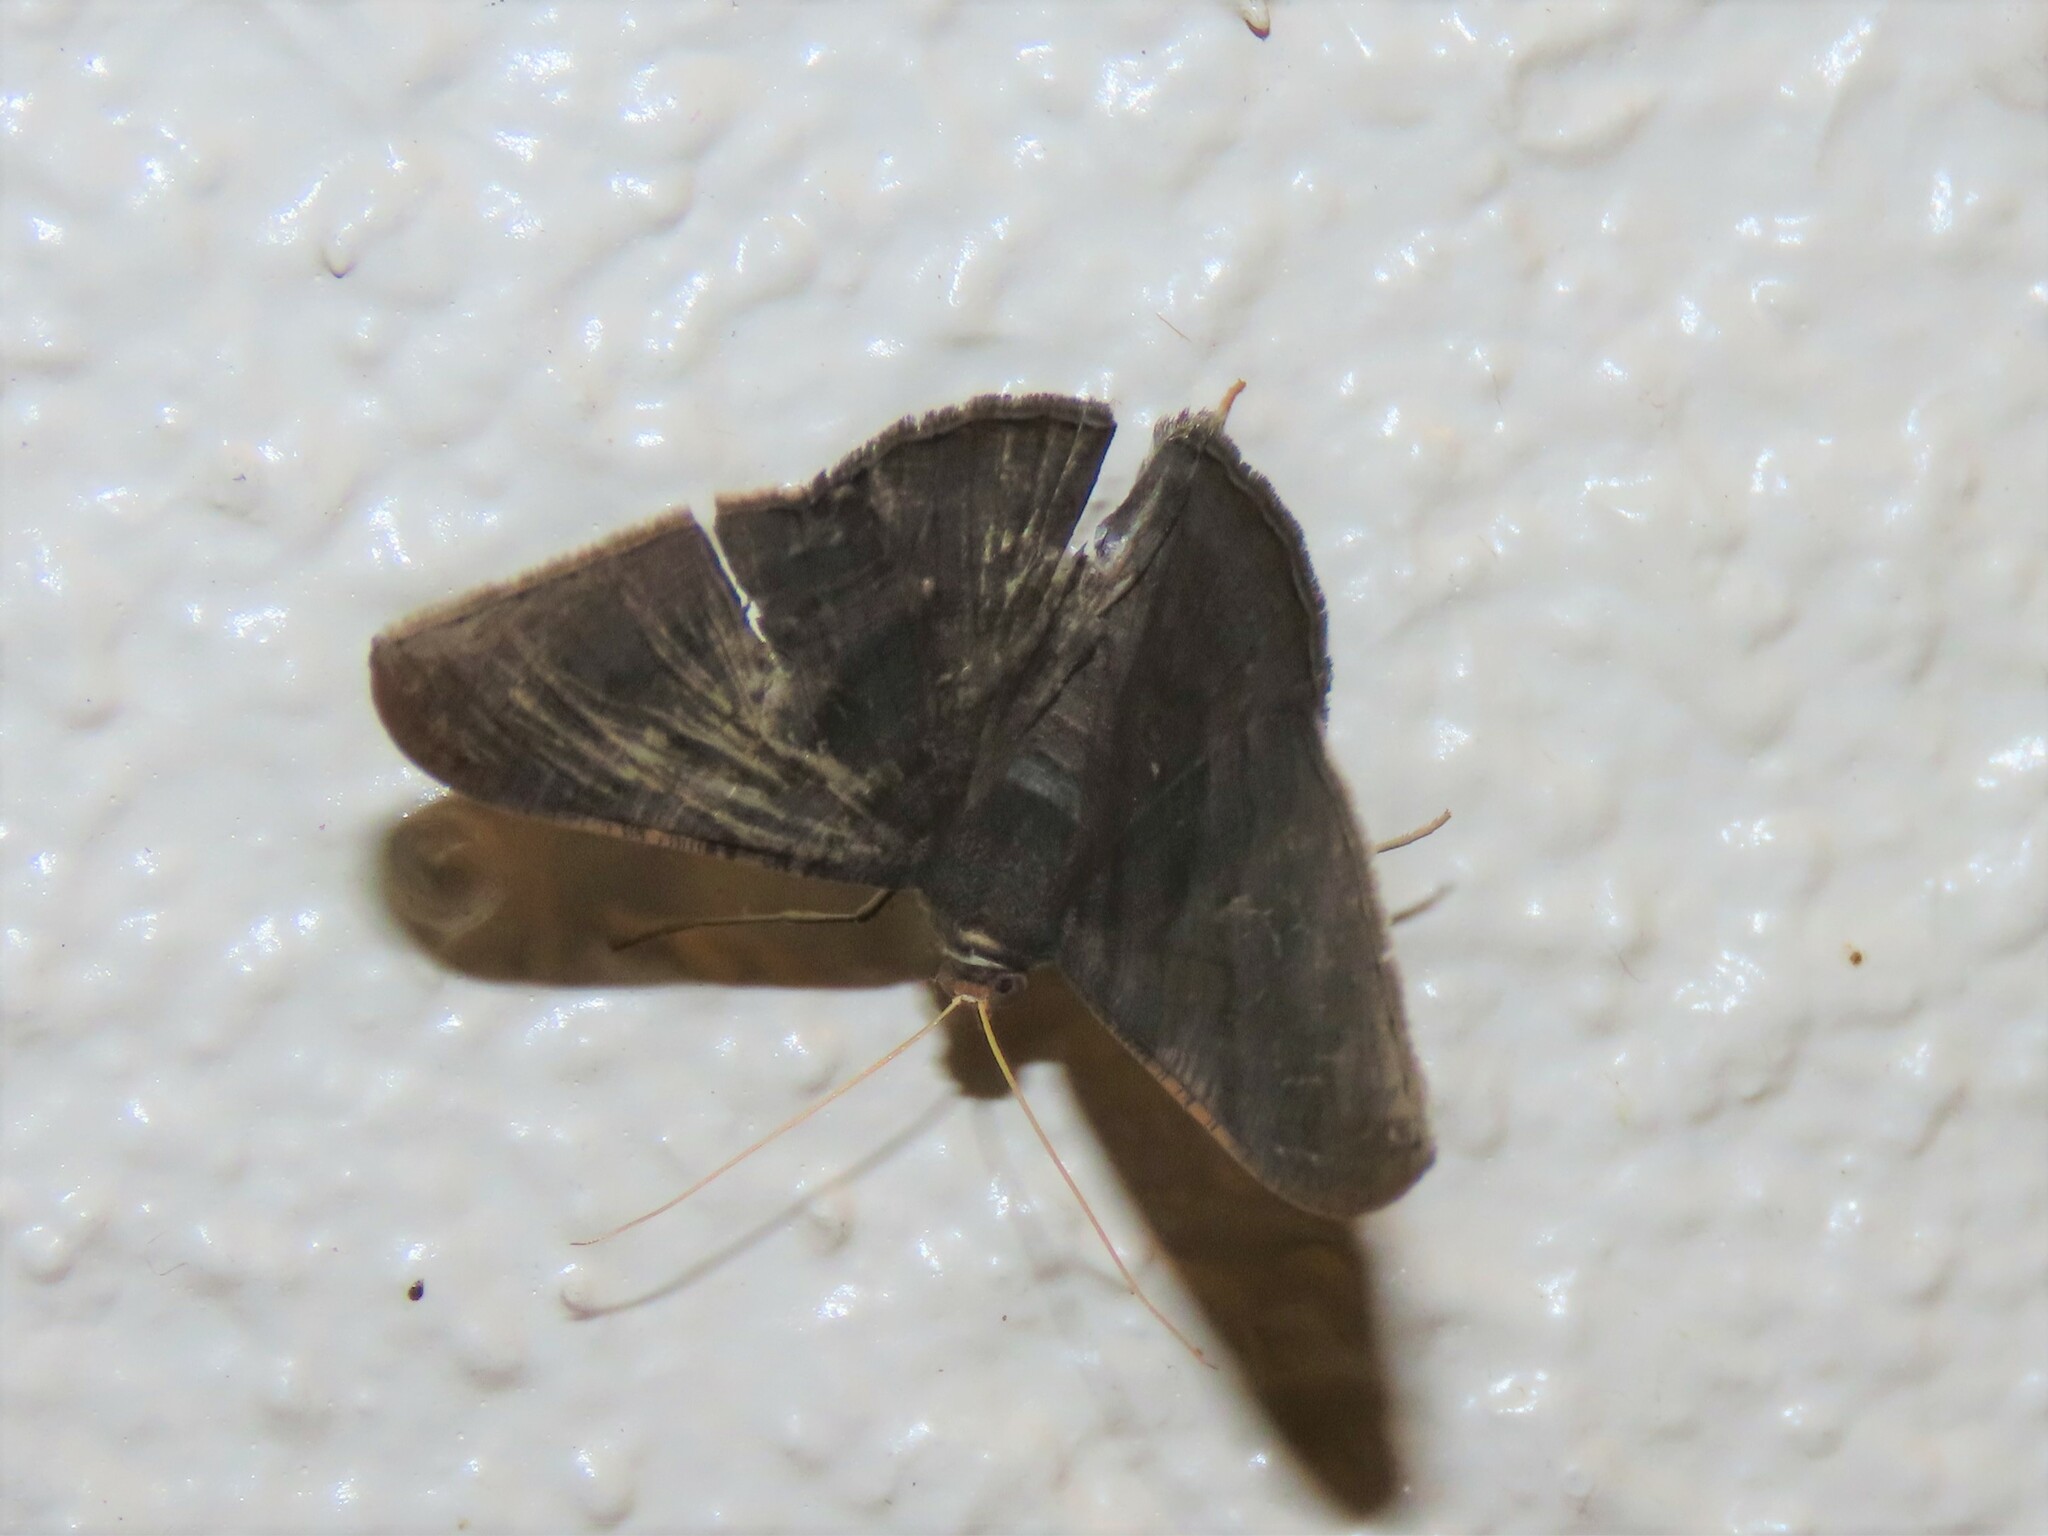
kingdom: Animalia
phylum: Arthropoda
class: Insecta
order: Lepidoptera
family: Geometridae
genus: Sphacelodes
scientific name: Sphacelodes vulneraria
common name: Looper moth
